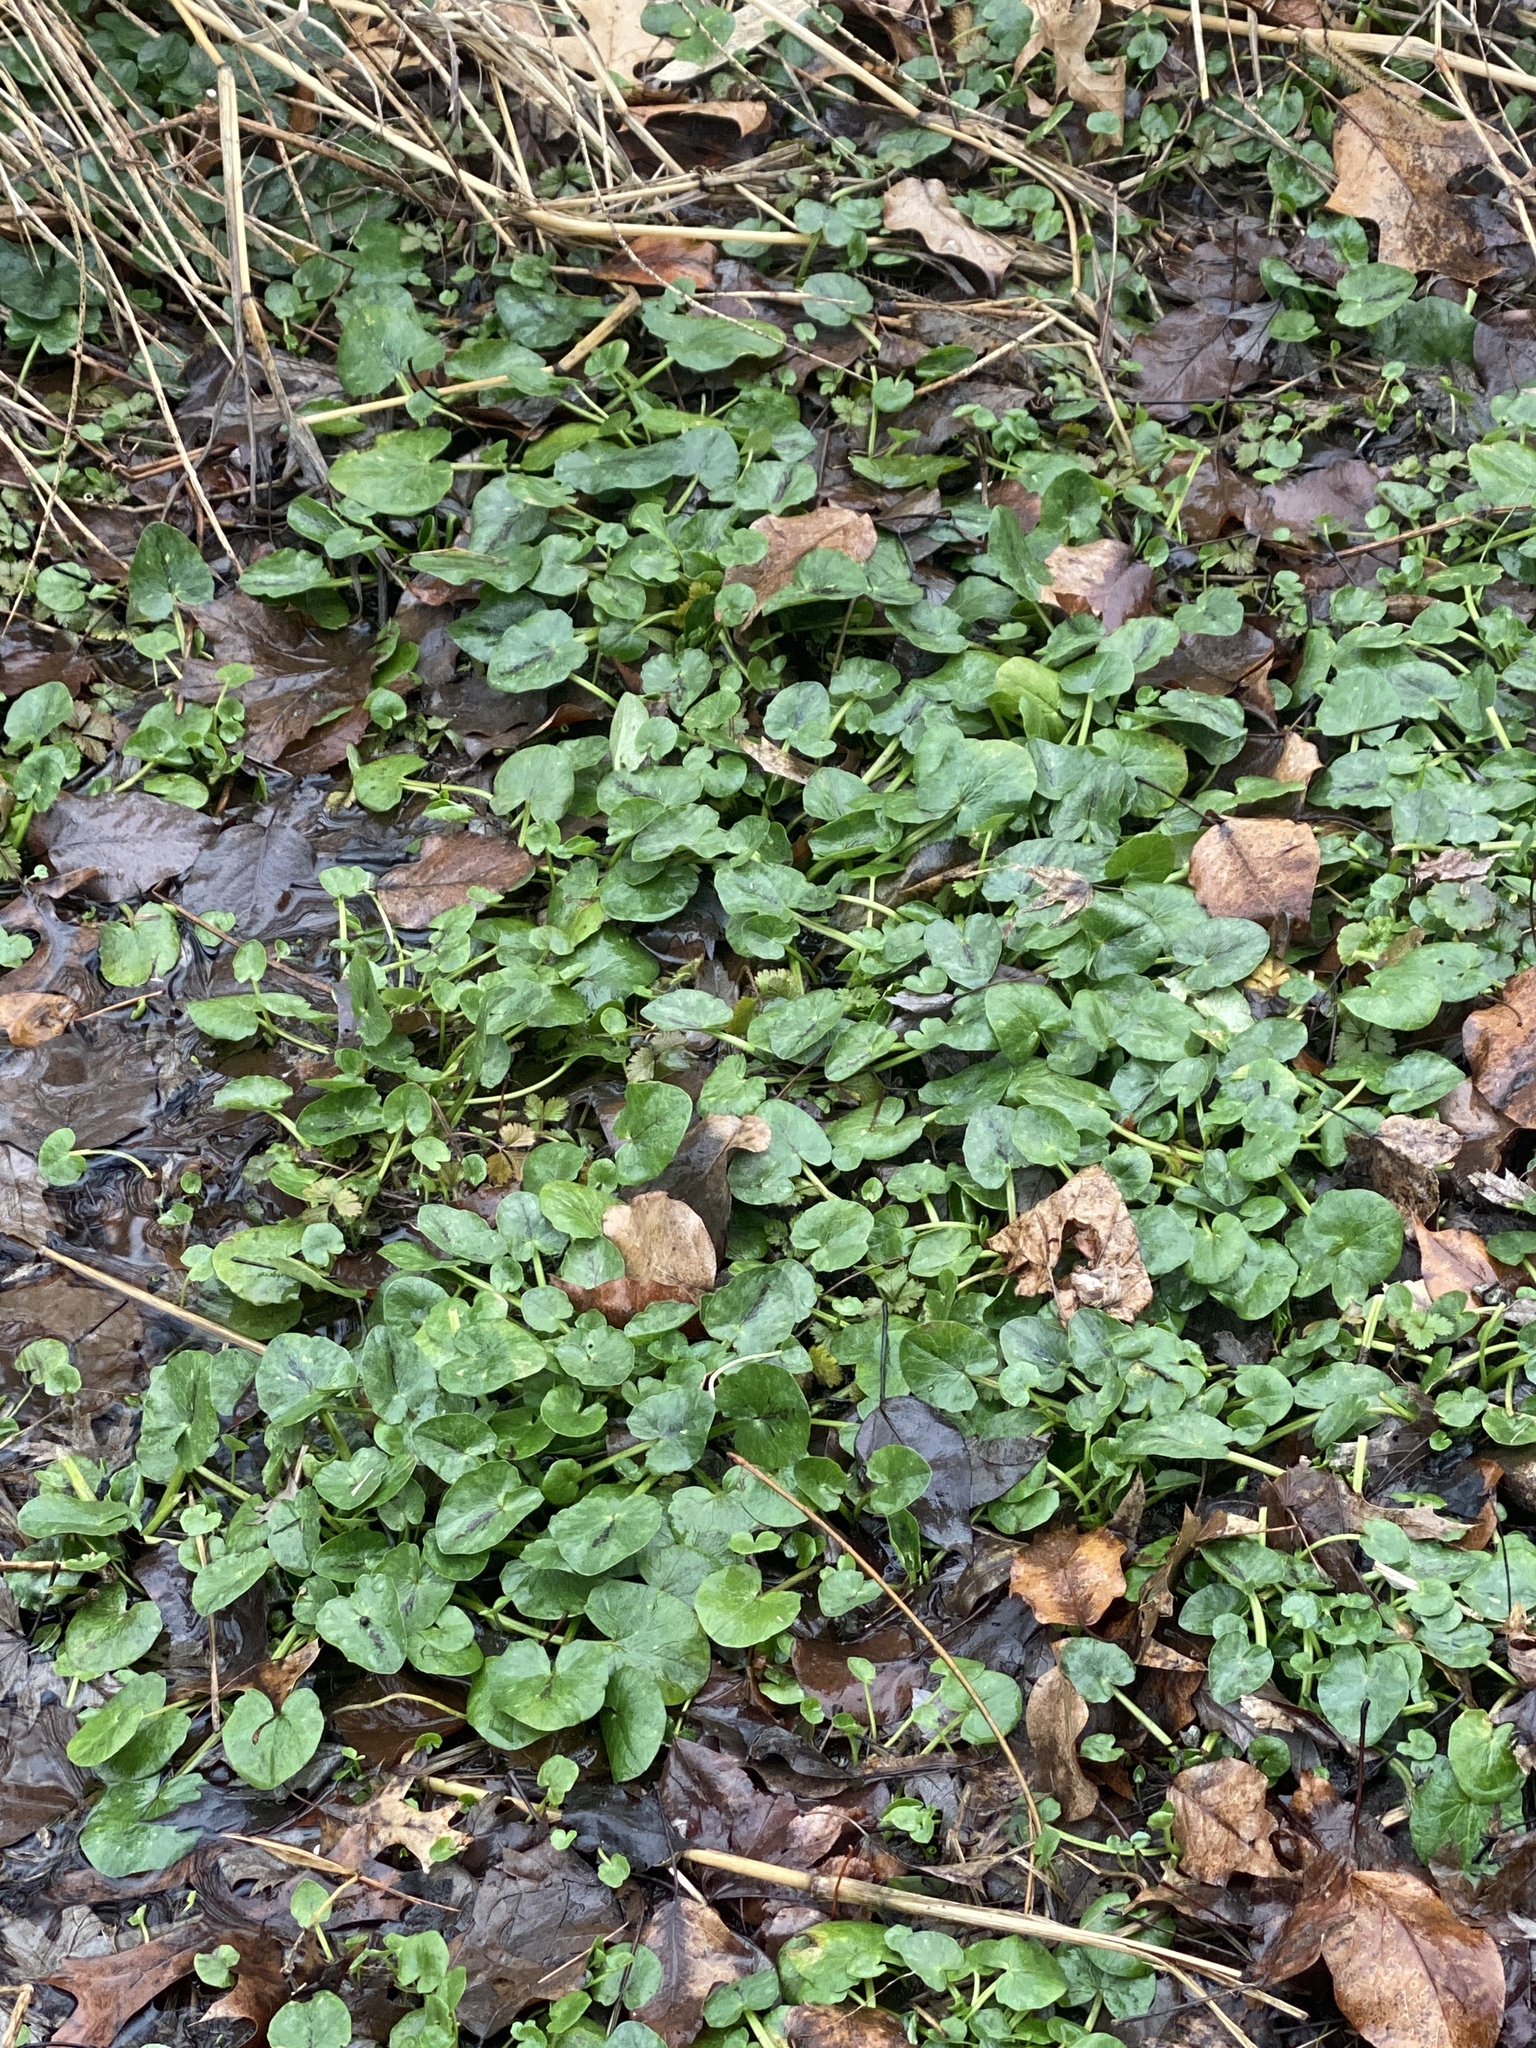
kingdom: Plantae
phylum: Tracheophyta
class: Magnoliopsida
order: Ranunculales
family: Ranunculaceae
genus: Ficaria
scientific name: Ficaria verna
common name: Lesser celandine
